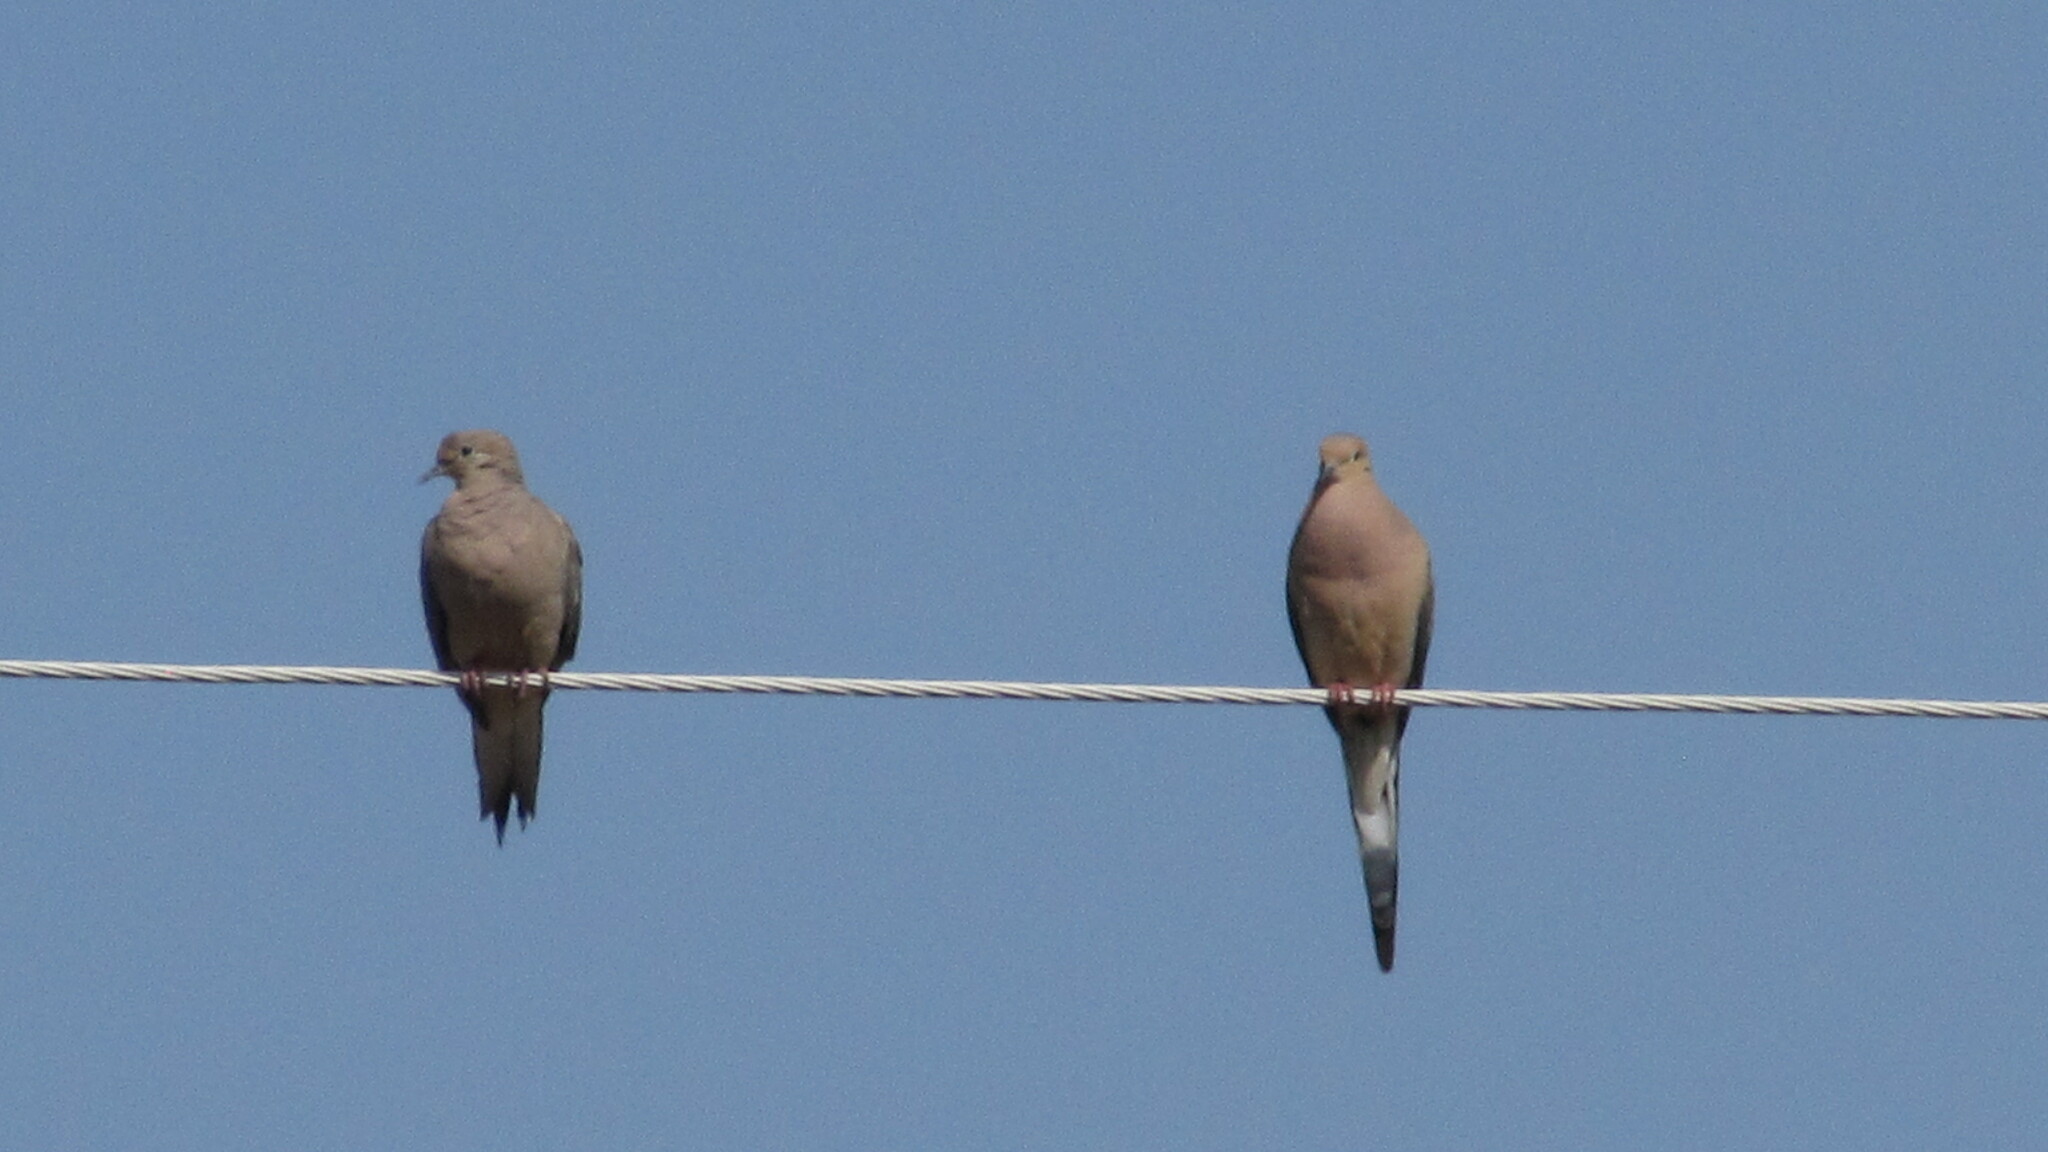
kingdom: Animalia
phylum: Chordata
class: Aves
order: Columbiformes
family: Columbidae
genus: Zenaida
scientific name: Zenaida macroura
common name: Mourning dove
